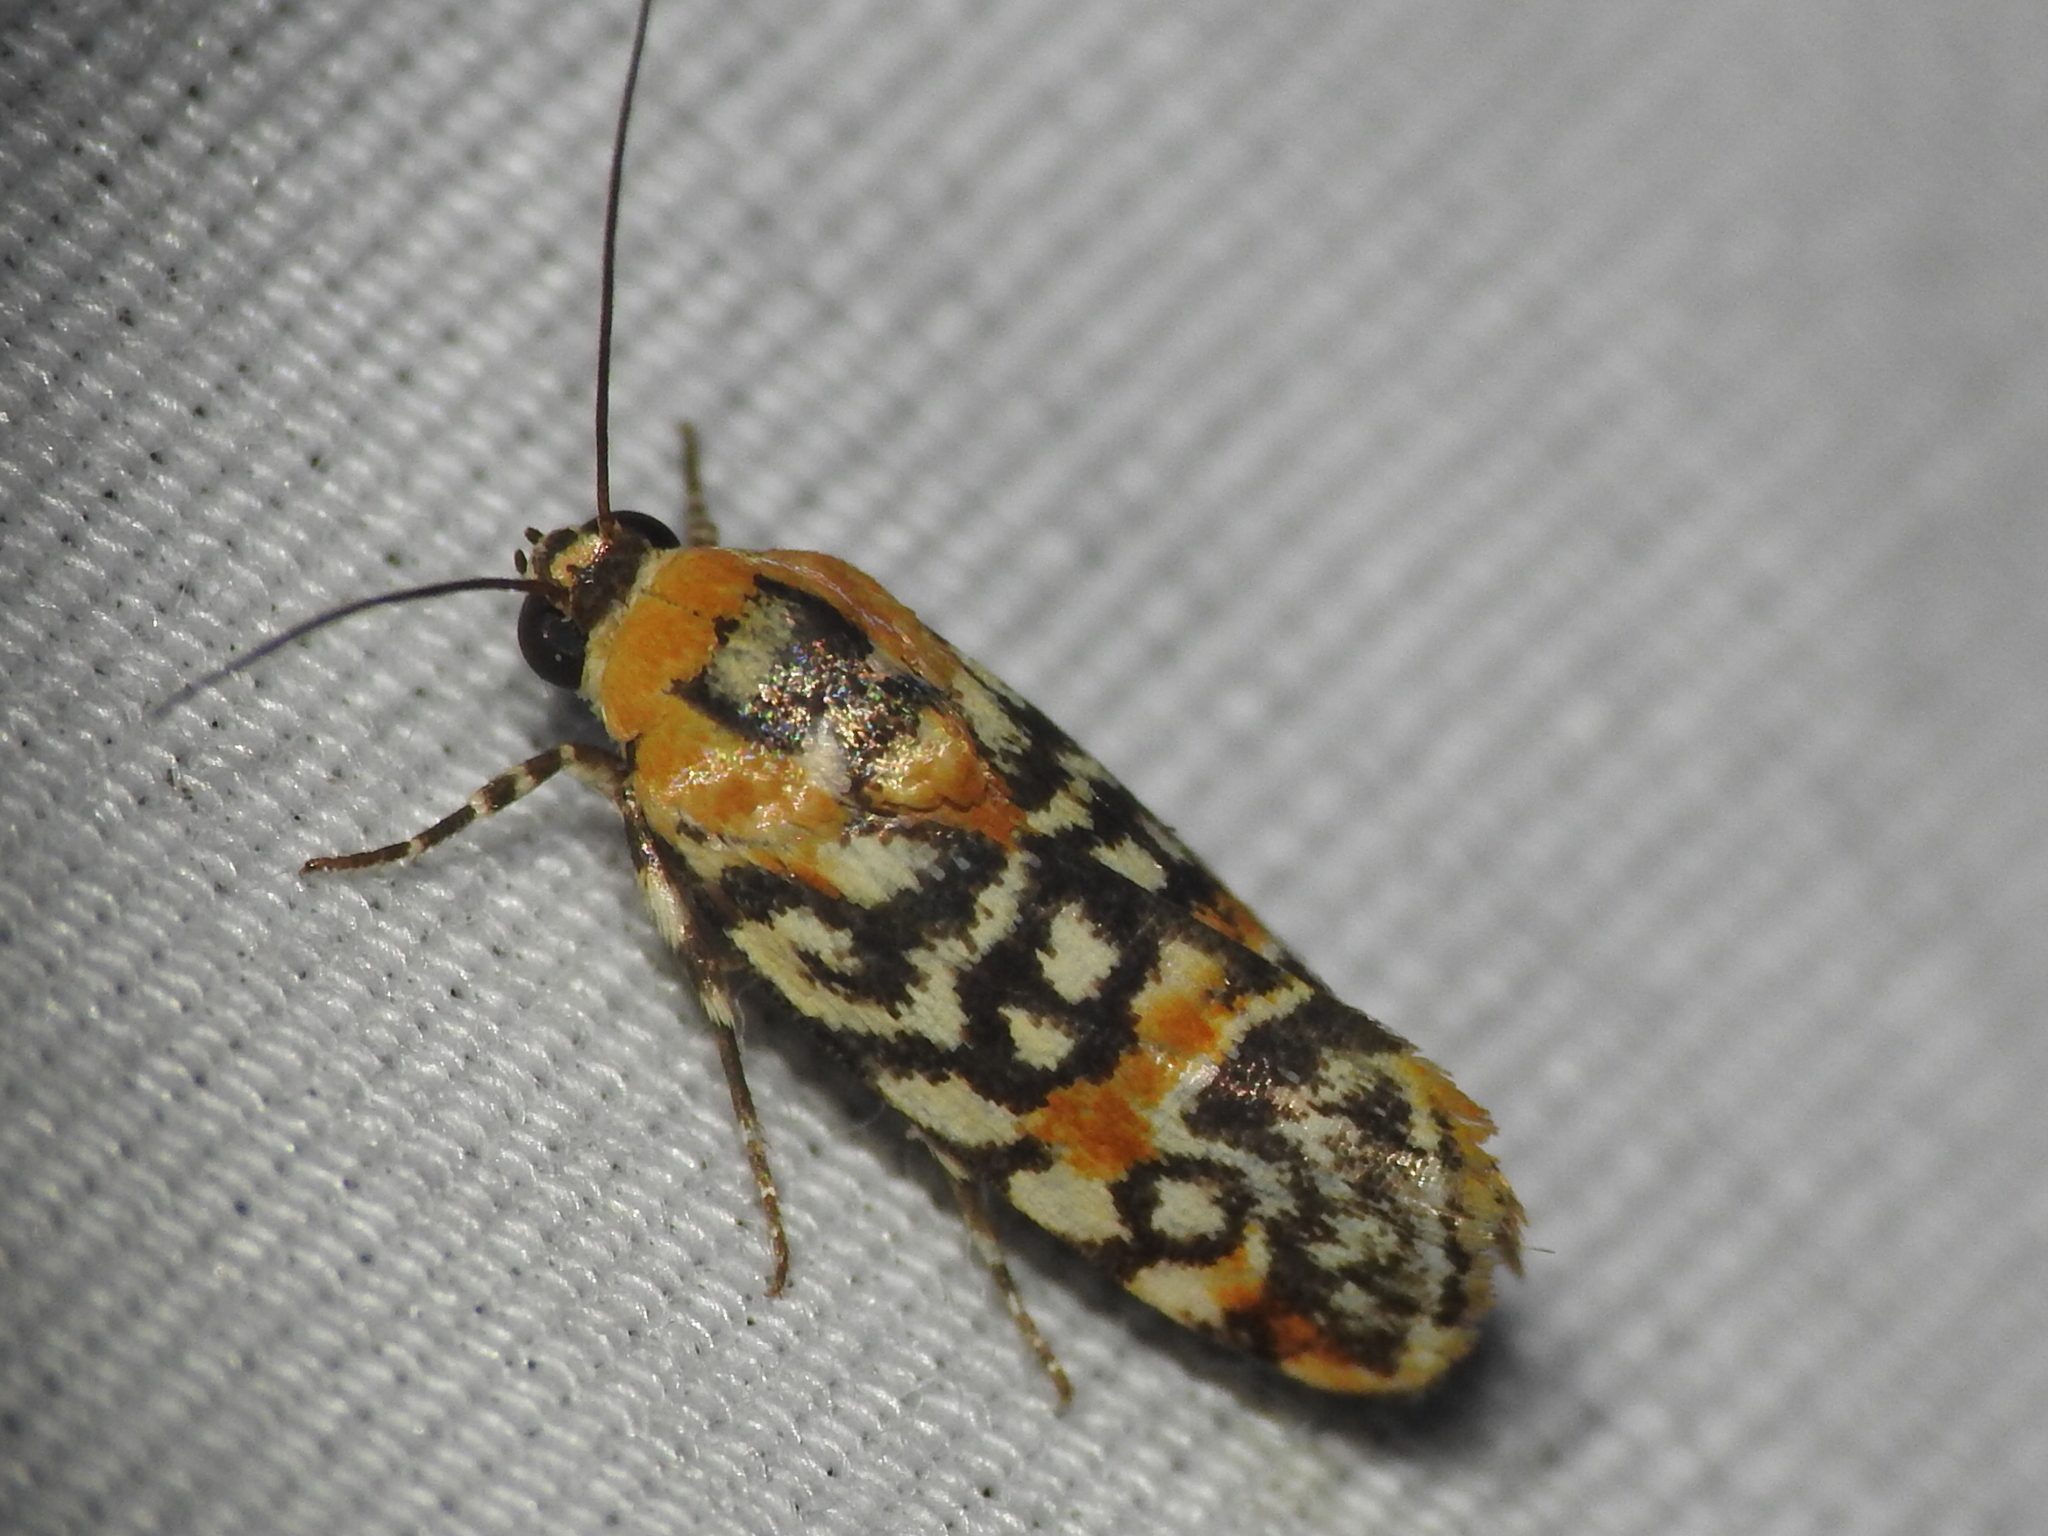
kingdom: Animalia
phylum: Arthropoda
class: Insecta
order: Lepidoptera
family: Noctuidae
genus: Spragueia
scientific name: Spragueia guttata
